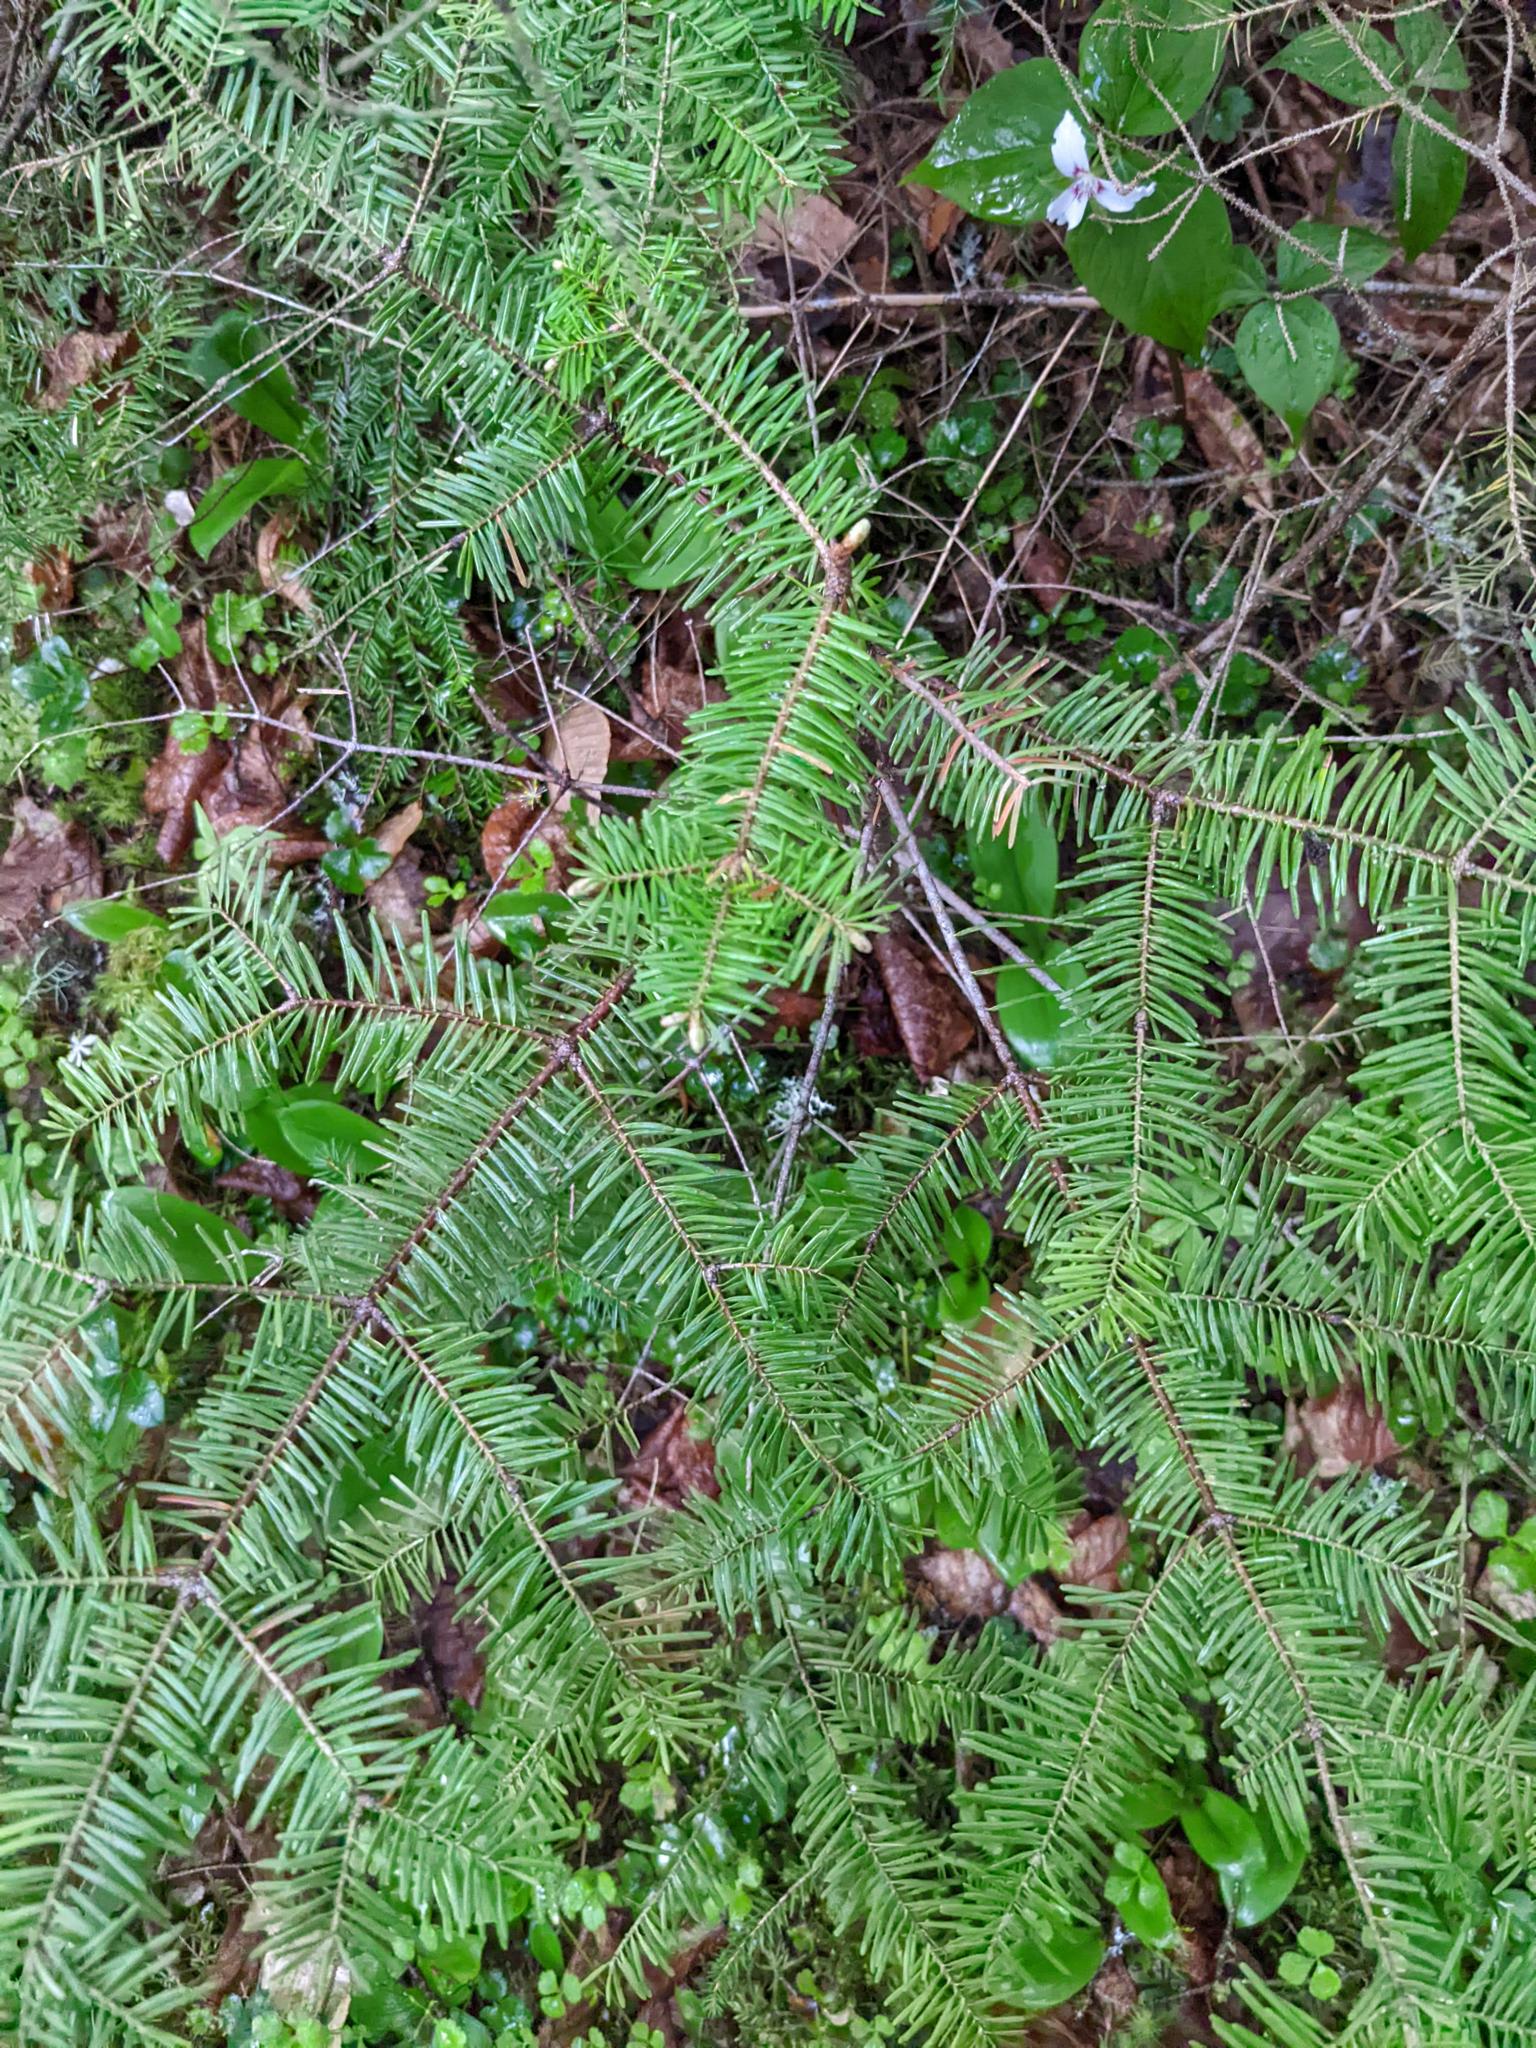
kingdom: Plantae
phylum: Tracheophyta
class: Pinopsida
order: Pinales
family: Pinaceae
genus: Abies
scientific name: Abies balsamea
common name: Balsam fir
